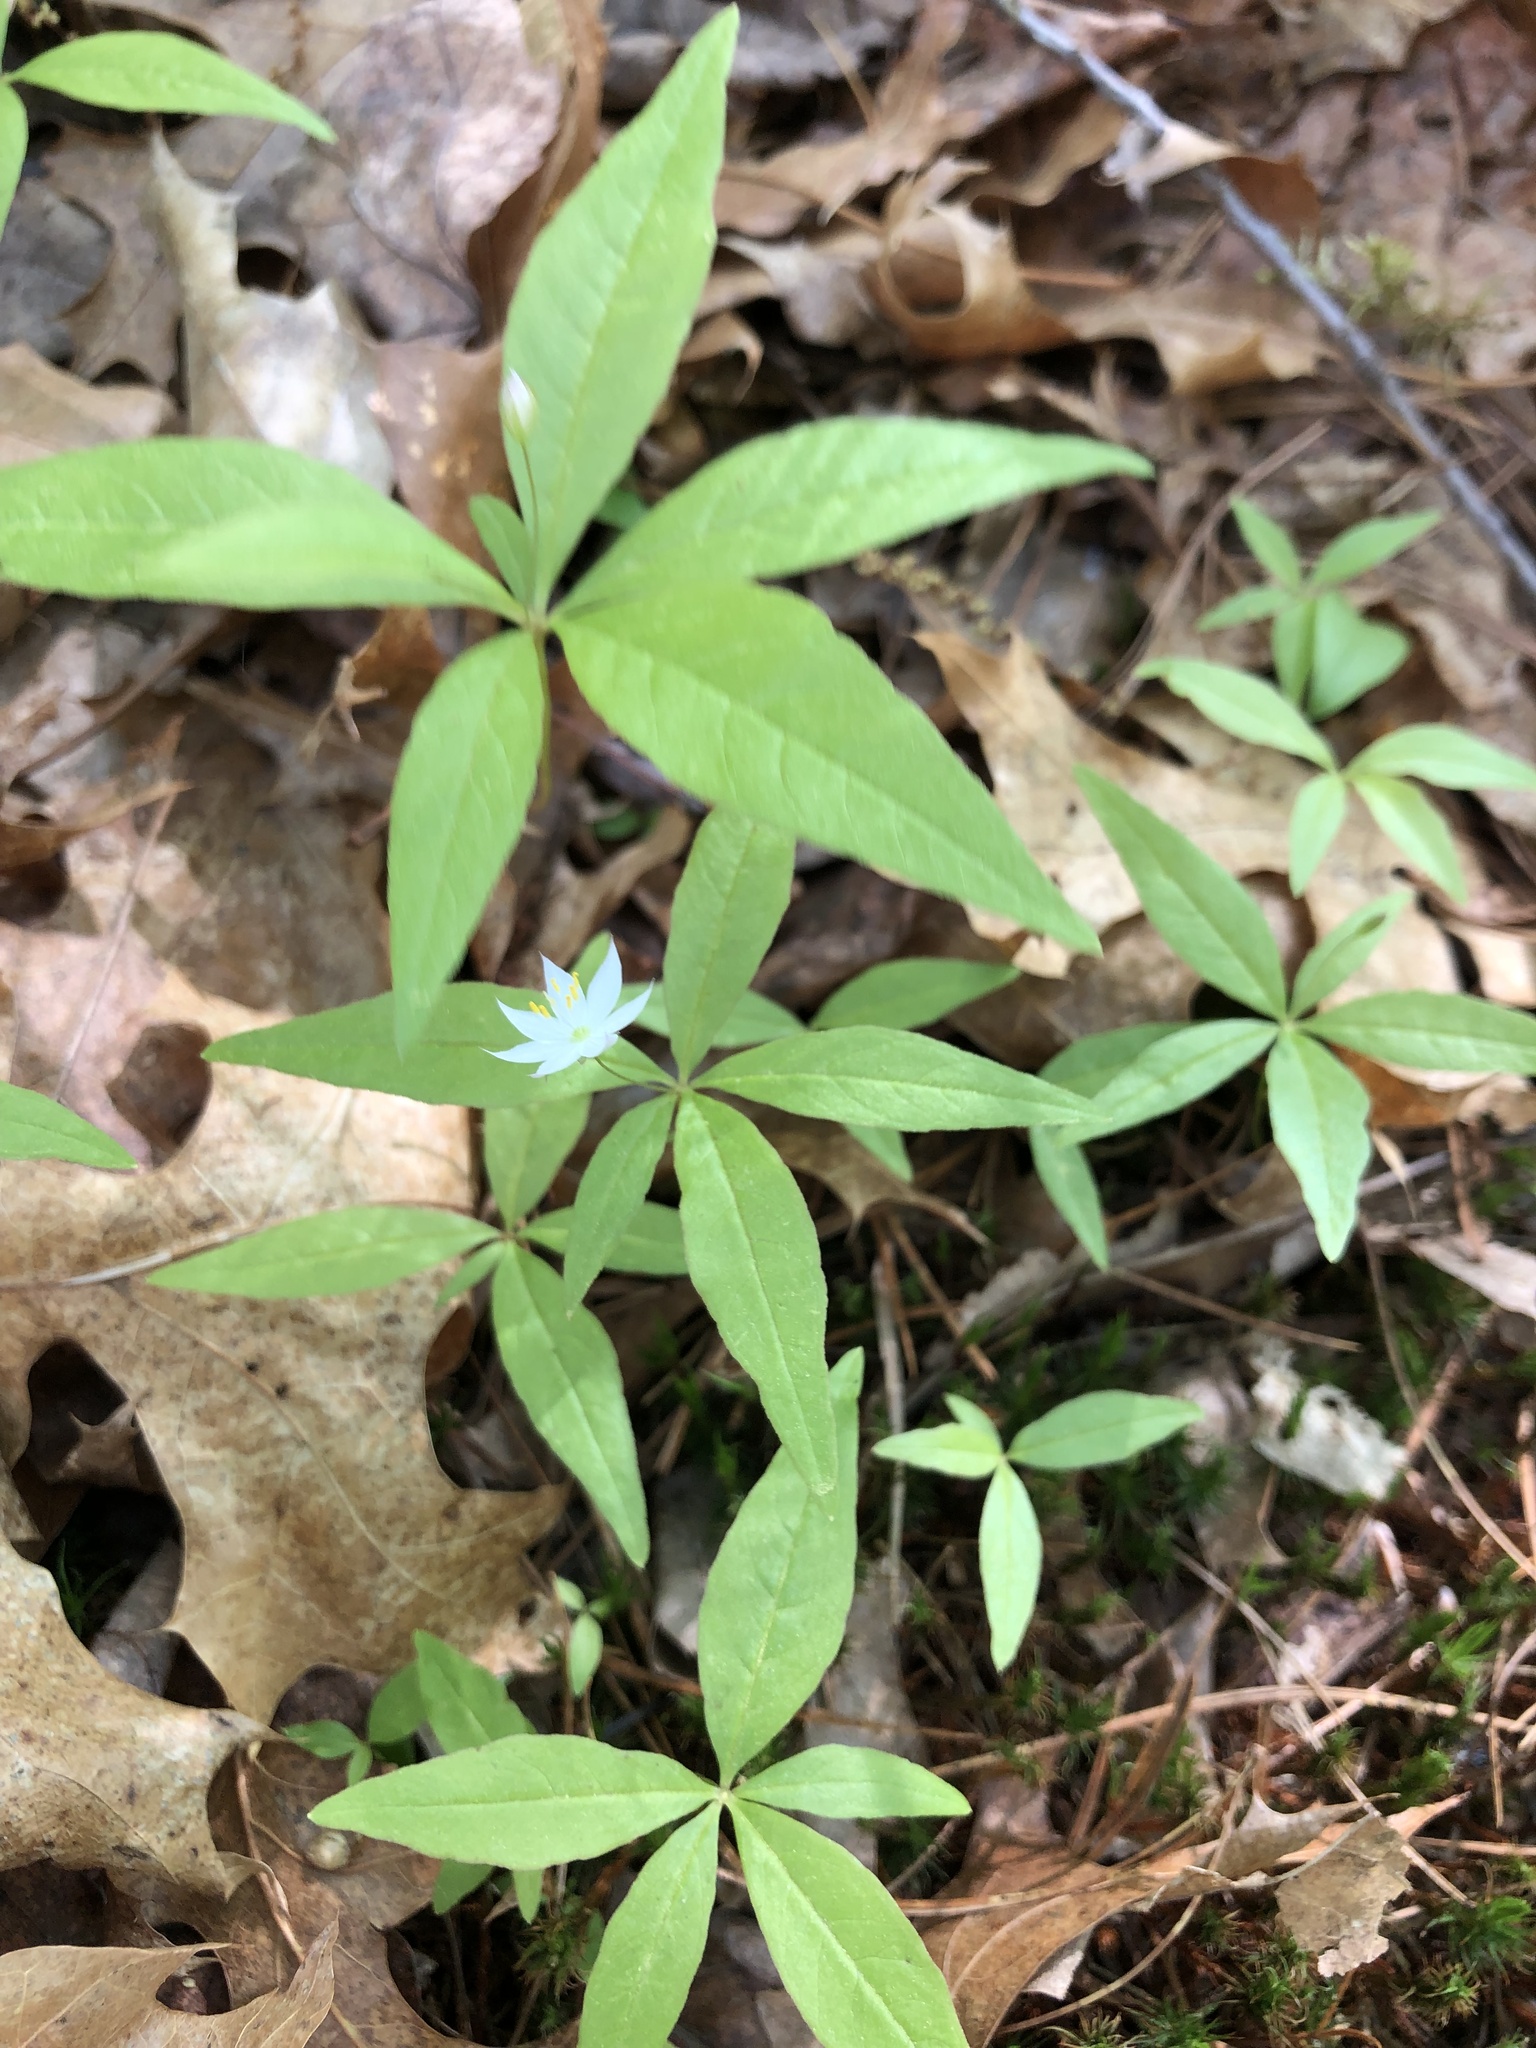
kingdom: Plantae
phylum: Tracheophyta
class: Magnoliopsida
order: Ericales
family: Primulaceae
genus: Lysimachia
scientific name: Lysimachia borealis
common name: American starflower
